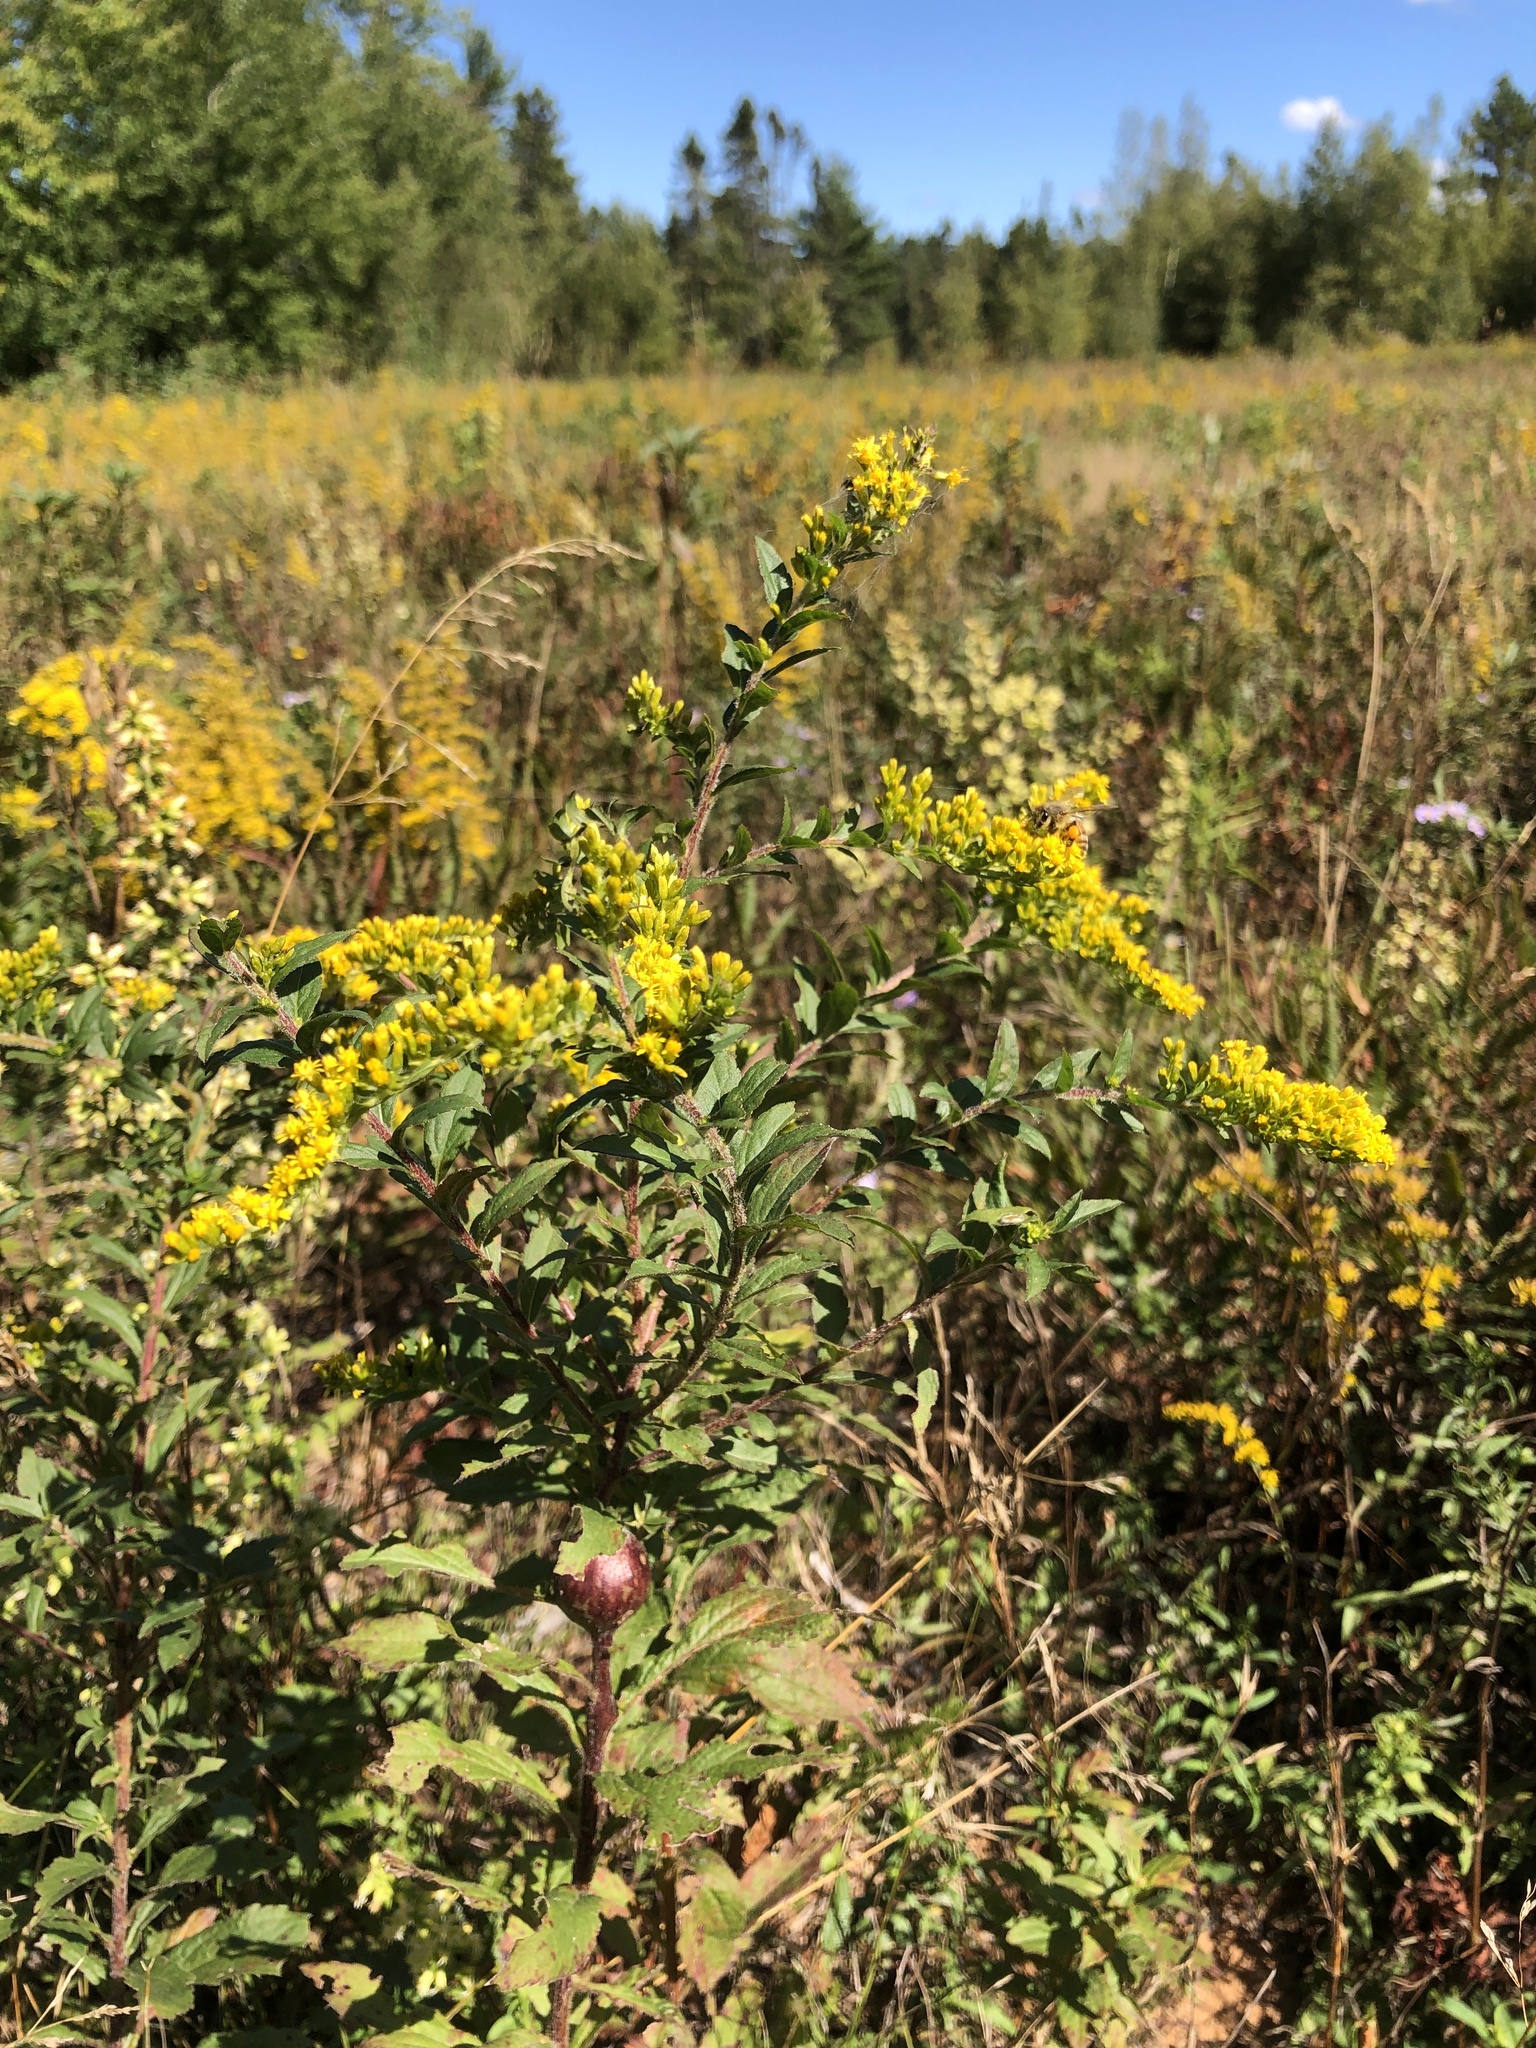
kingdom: Plantae
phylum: Tracheophyta
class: Magnoliopsida
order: Asterales
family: Asteraceae
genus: Solidago
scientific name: Solidago canadensis
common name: Canada goldenrod
